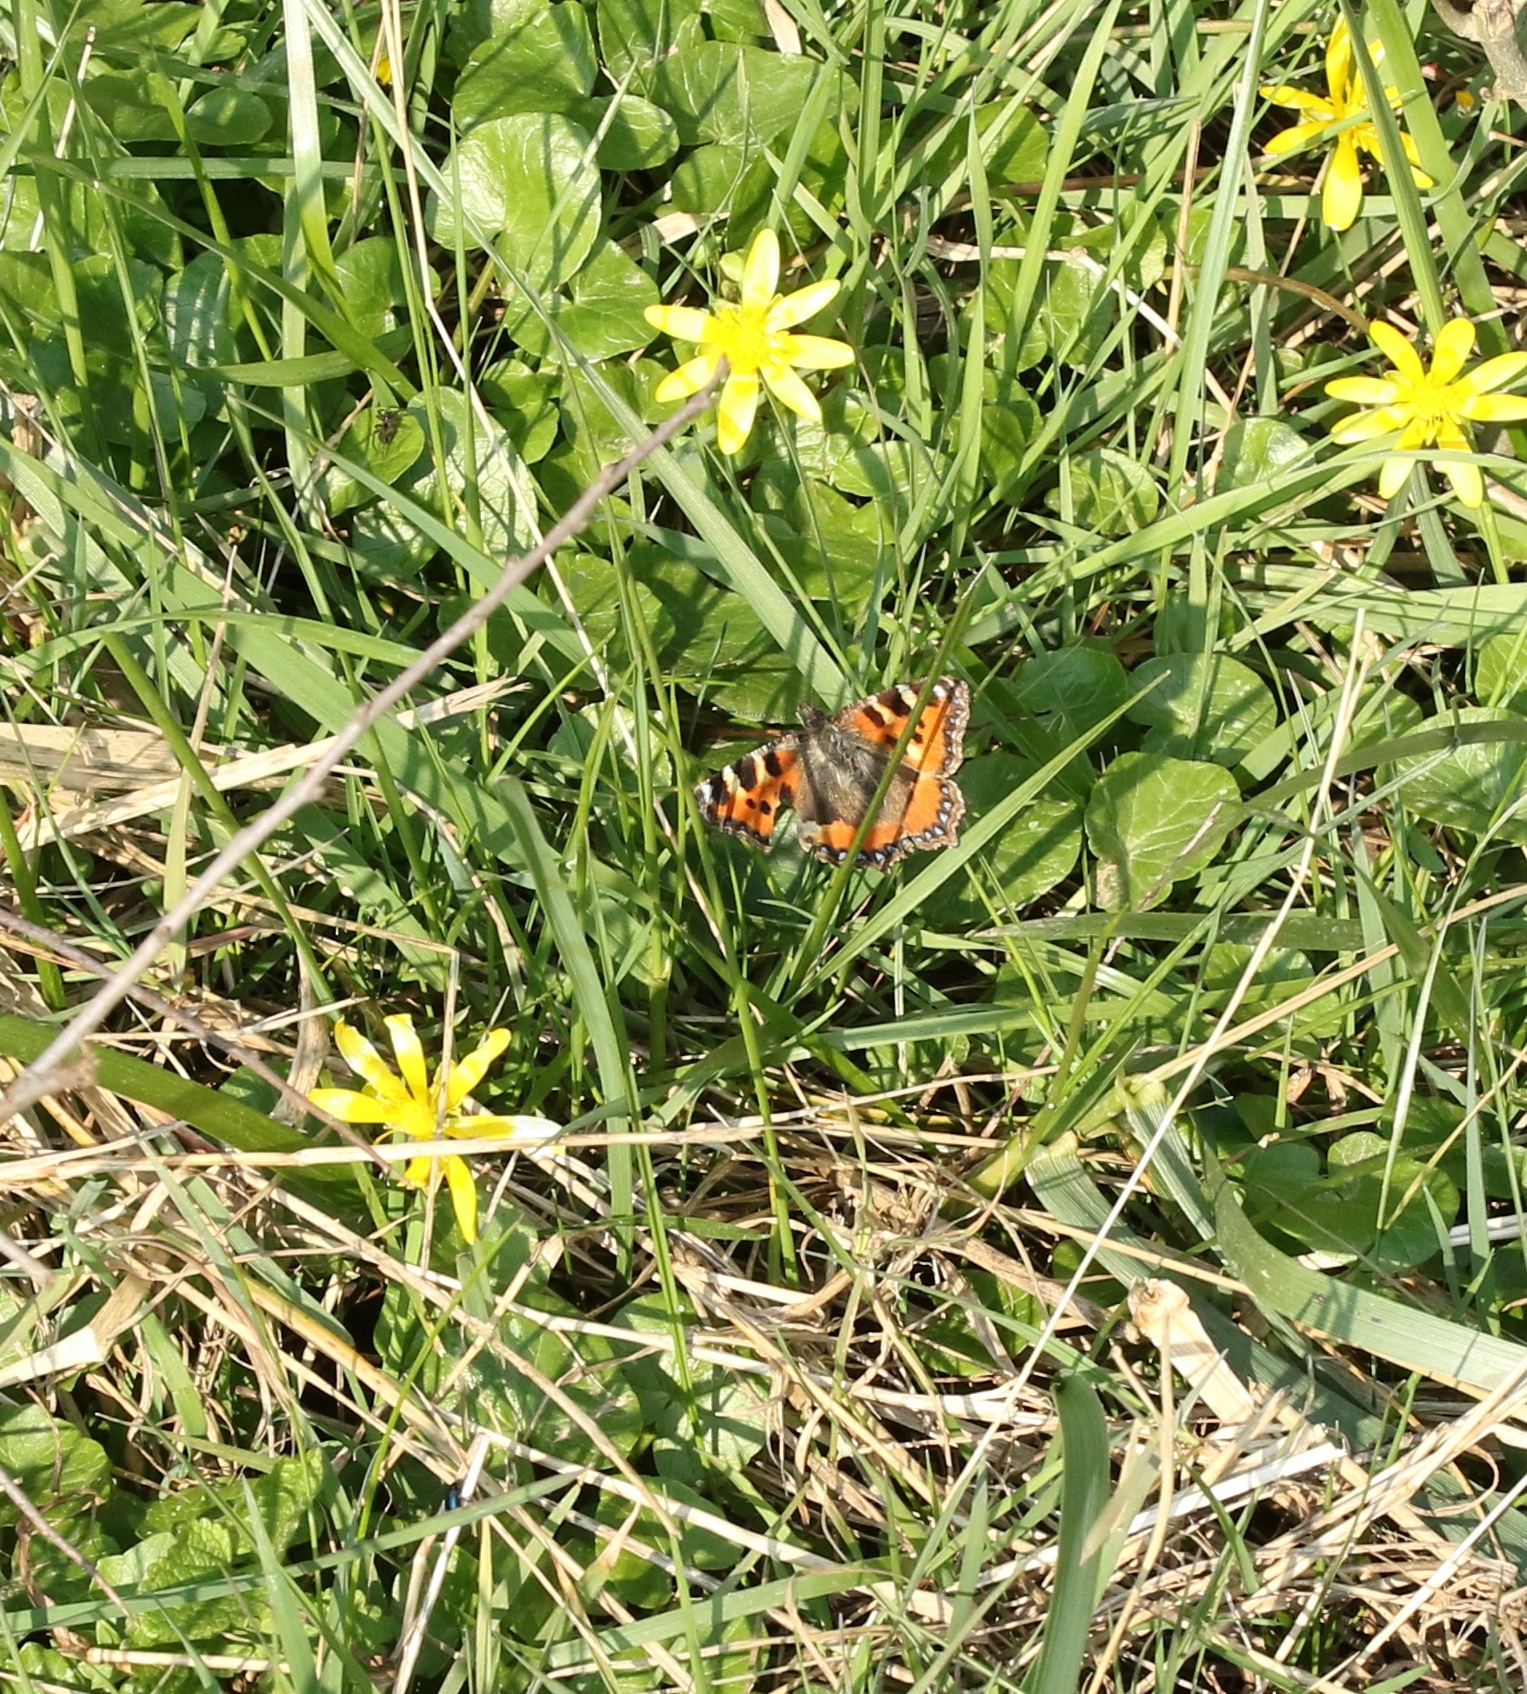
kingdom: Animalia
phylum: Arthropoda
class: Insecta
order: Lepidoptera
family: Nymphalidae
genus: Aglais
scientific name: Aglais urticae
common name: Small tortoiseshell
